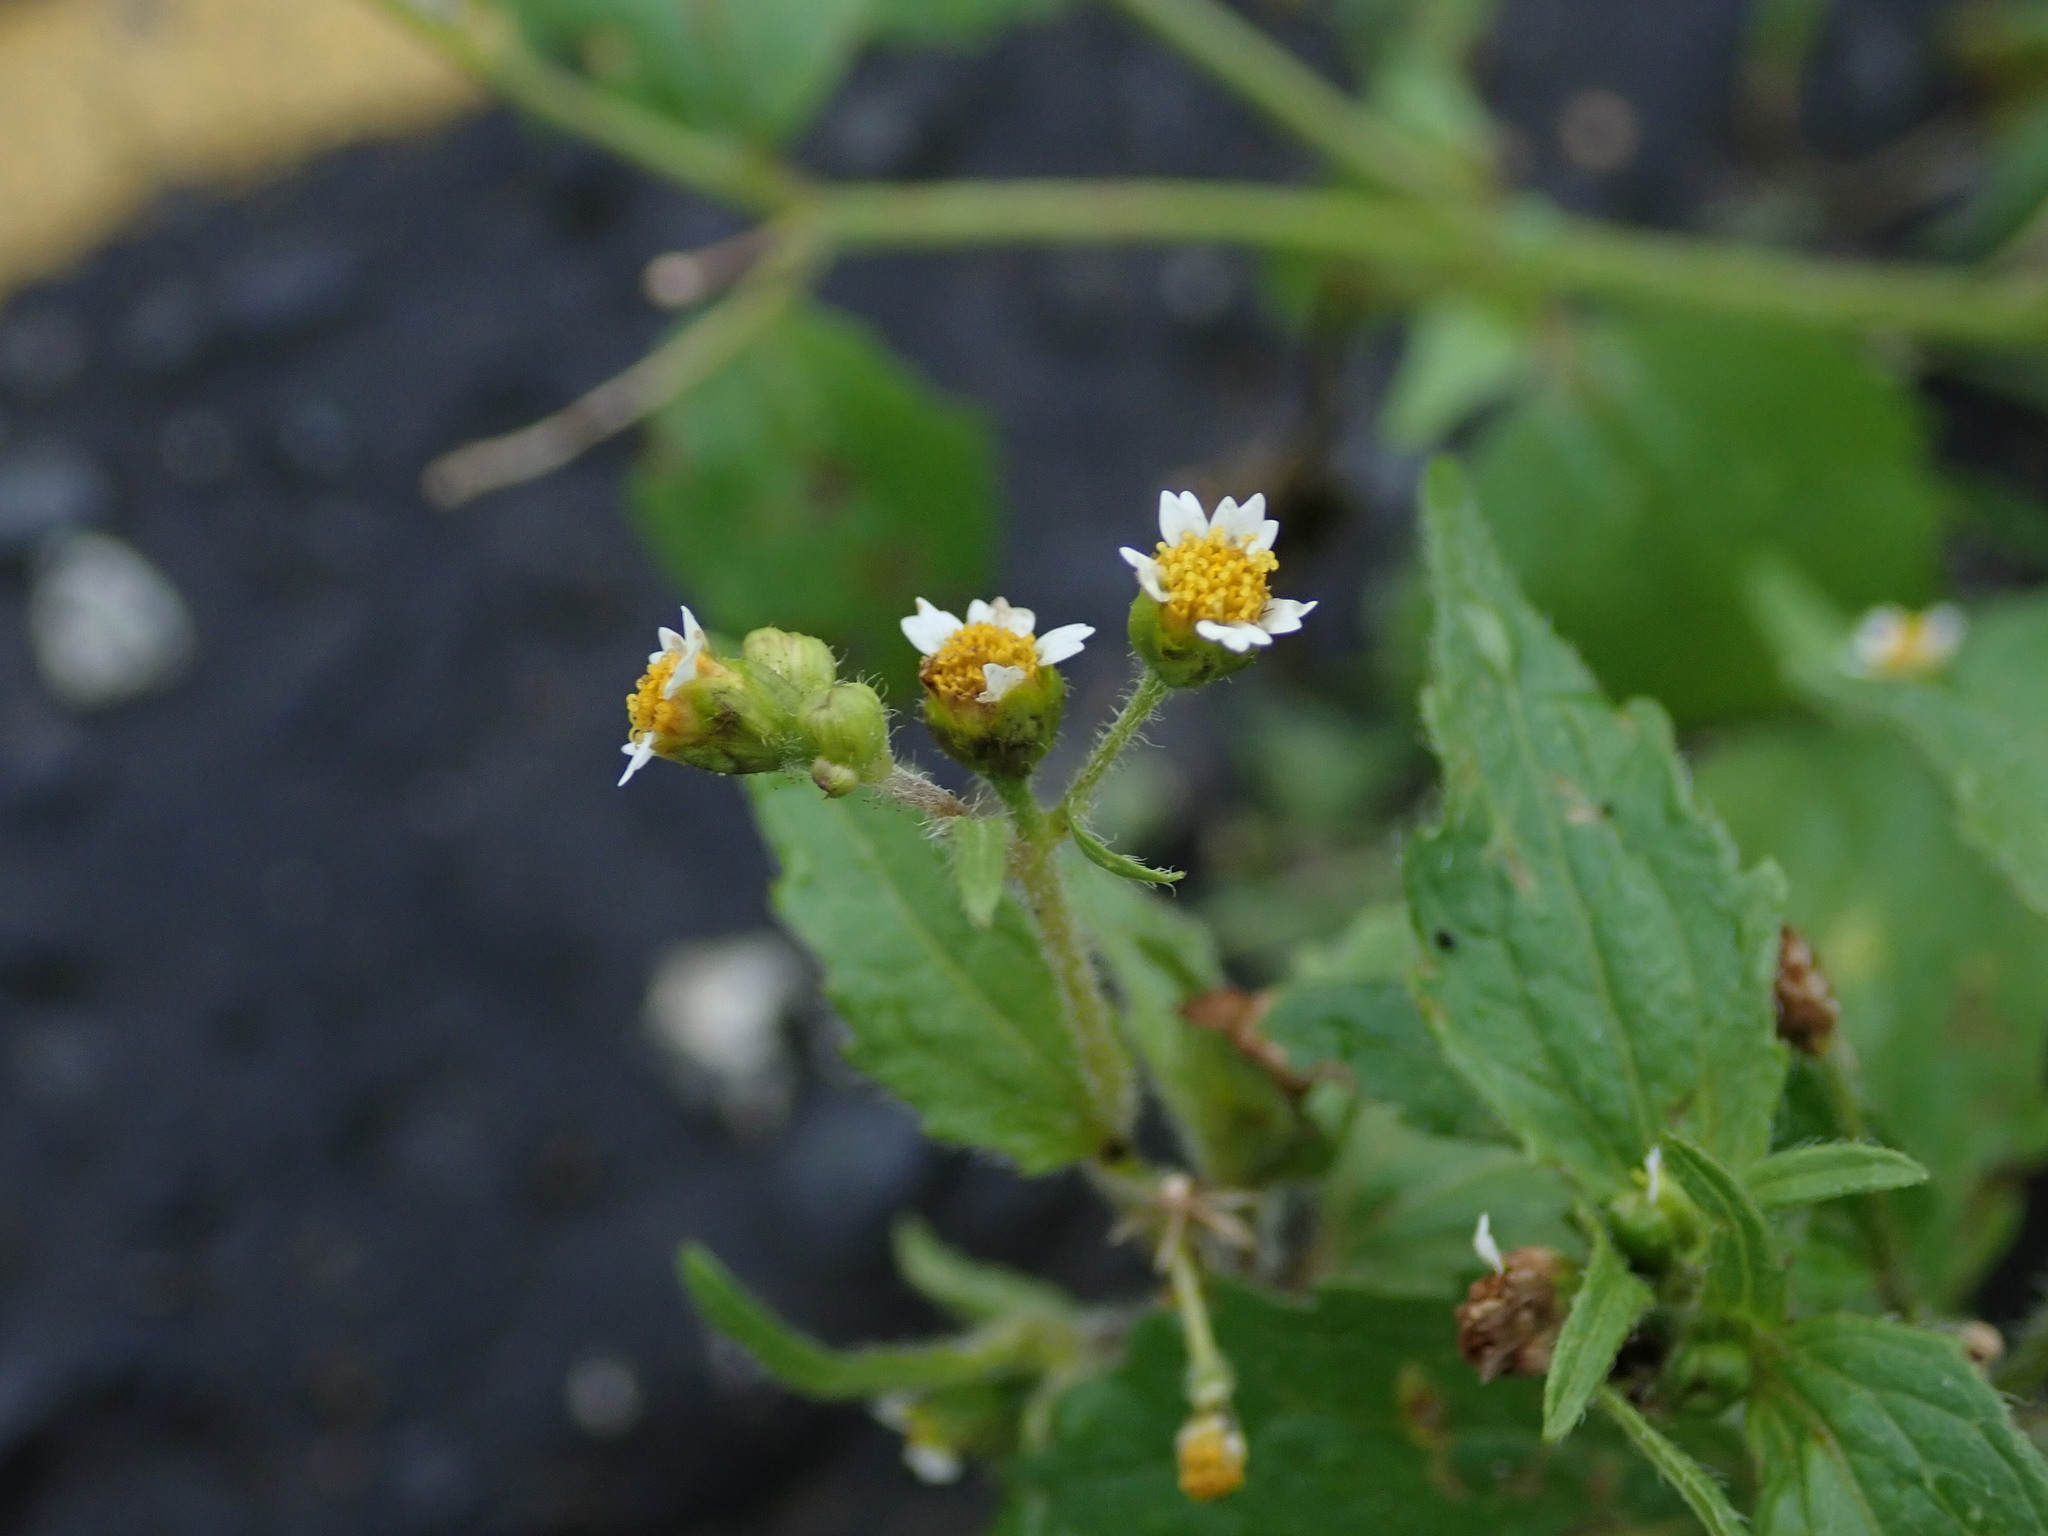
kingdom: Plantae
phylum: Tracheophyta
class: Magnoliopsida
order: Asterales
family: Asteraceae
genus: Galinsoga
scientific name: Galinsoga quadriradiata
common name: Shaggy soldier
